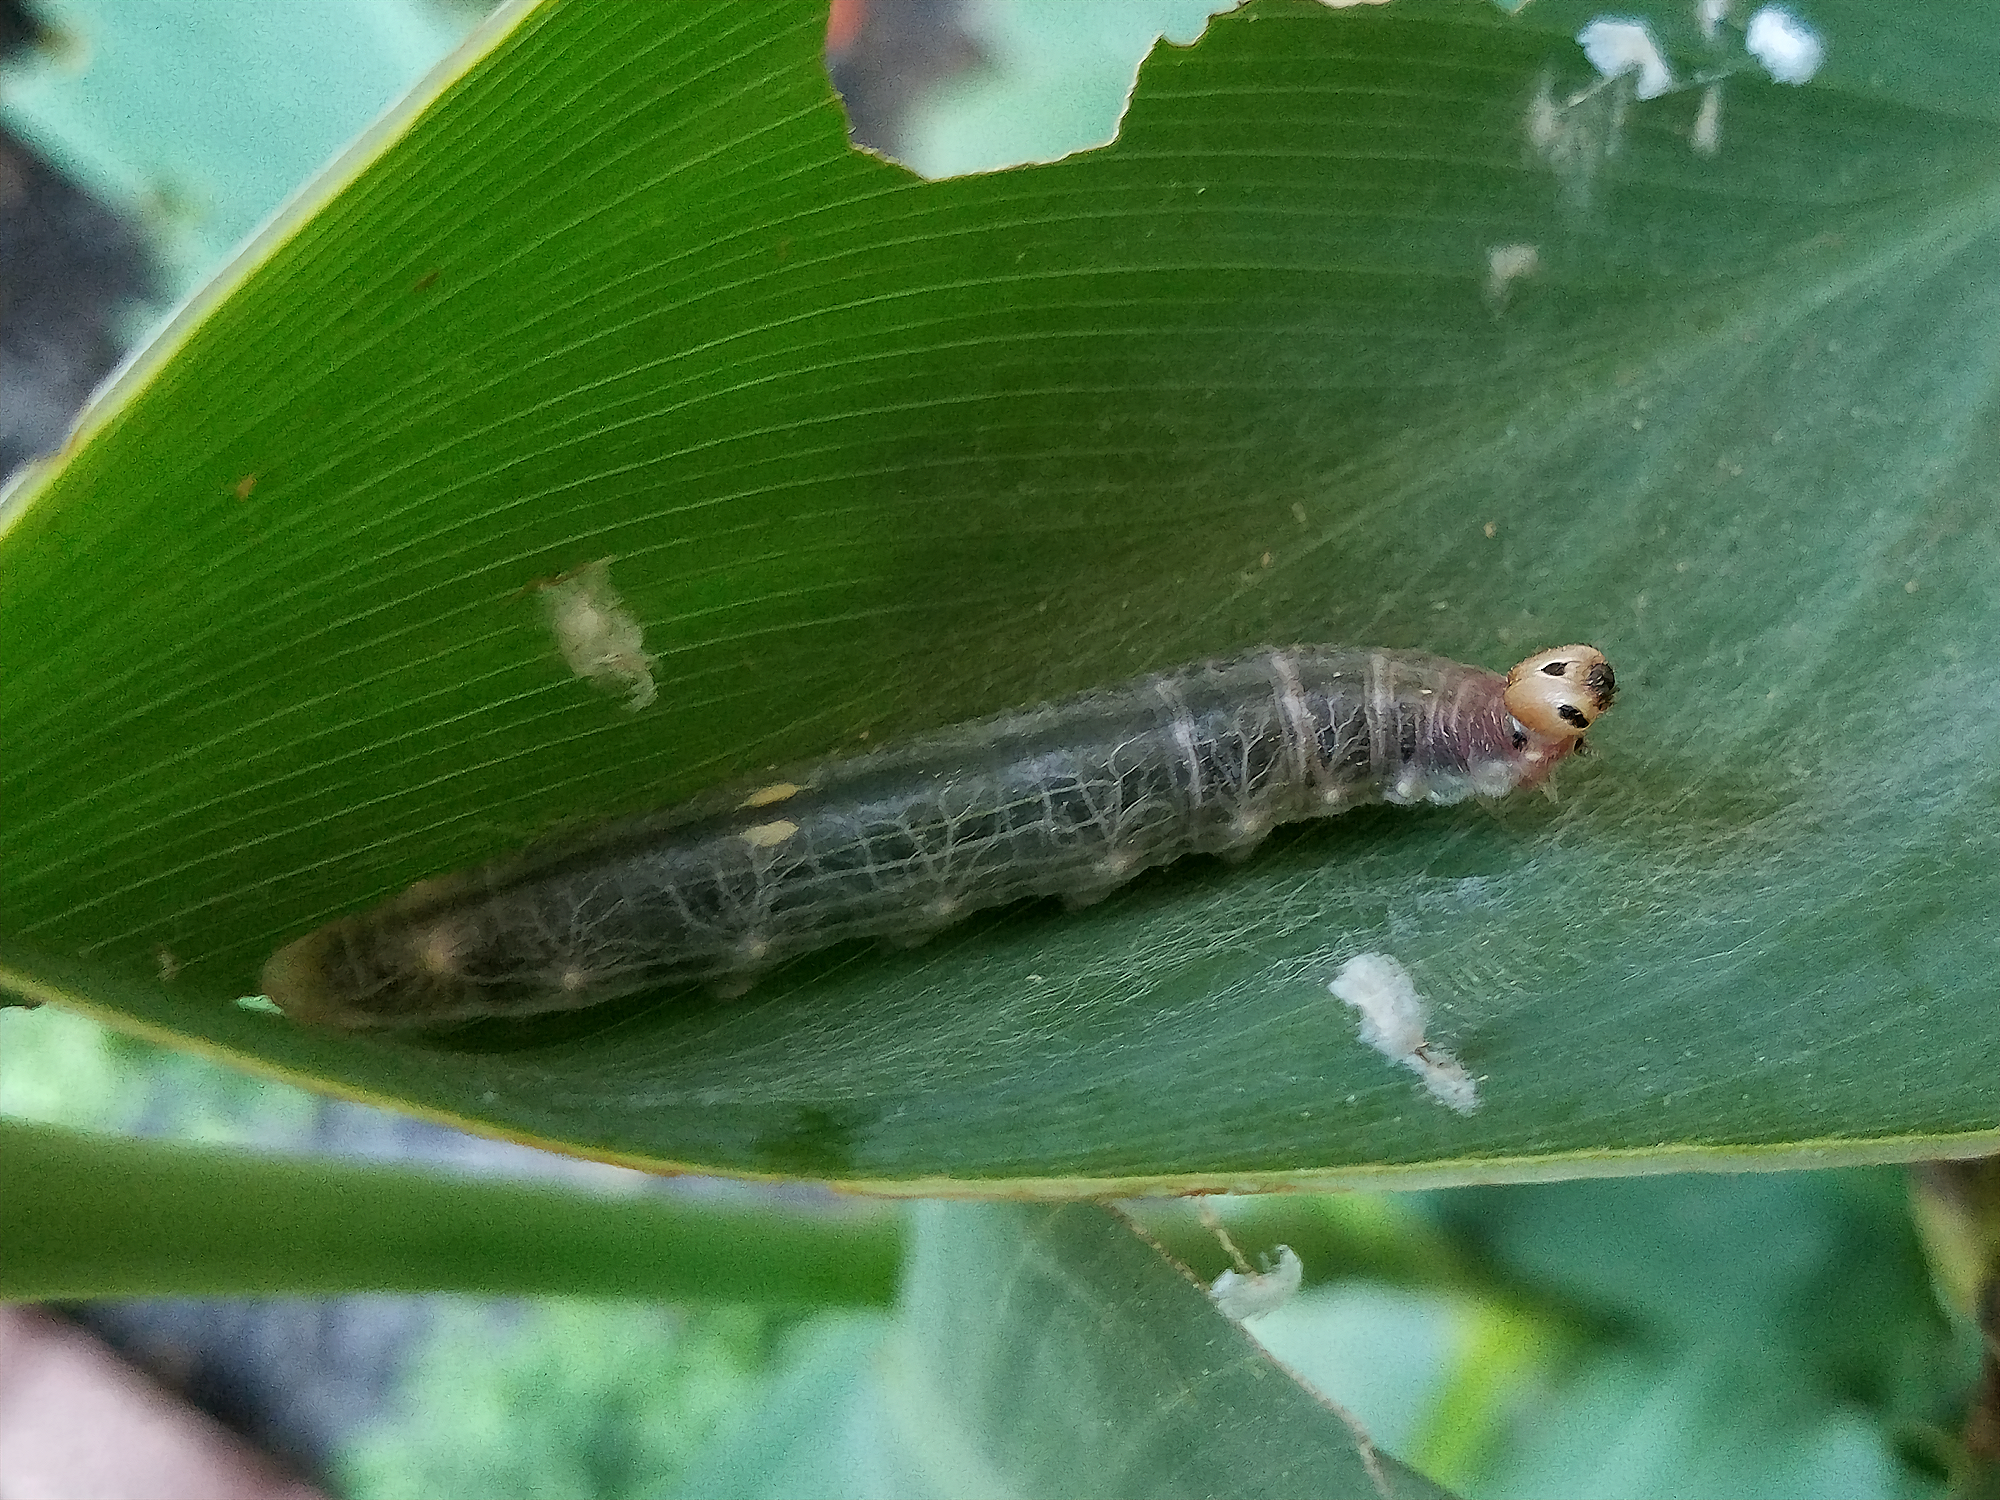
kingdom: Animalia
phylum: Arthropoda
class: Insecta
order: Lepidoptera
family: Hesperiidae
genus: Calpodes
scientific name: Calpodes ethlius
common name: Brazilian skipper
